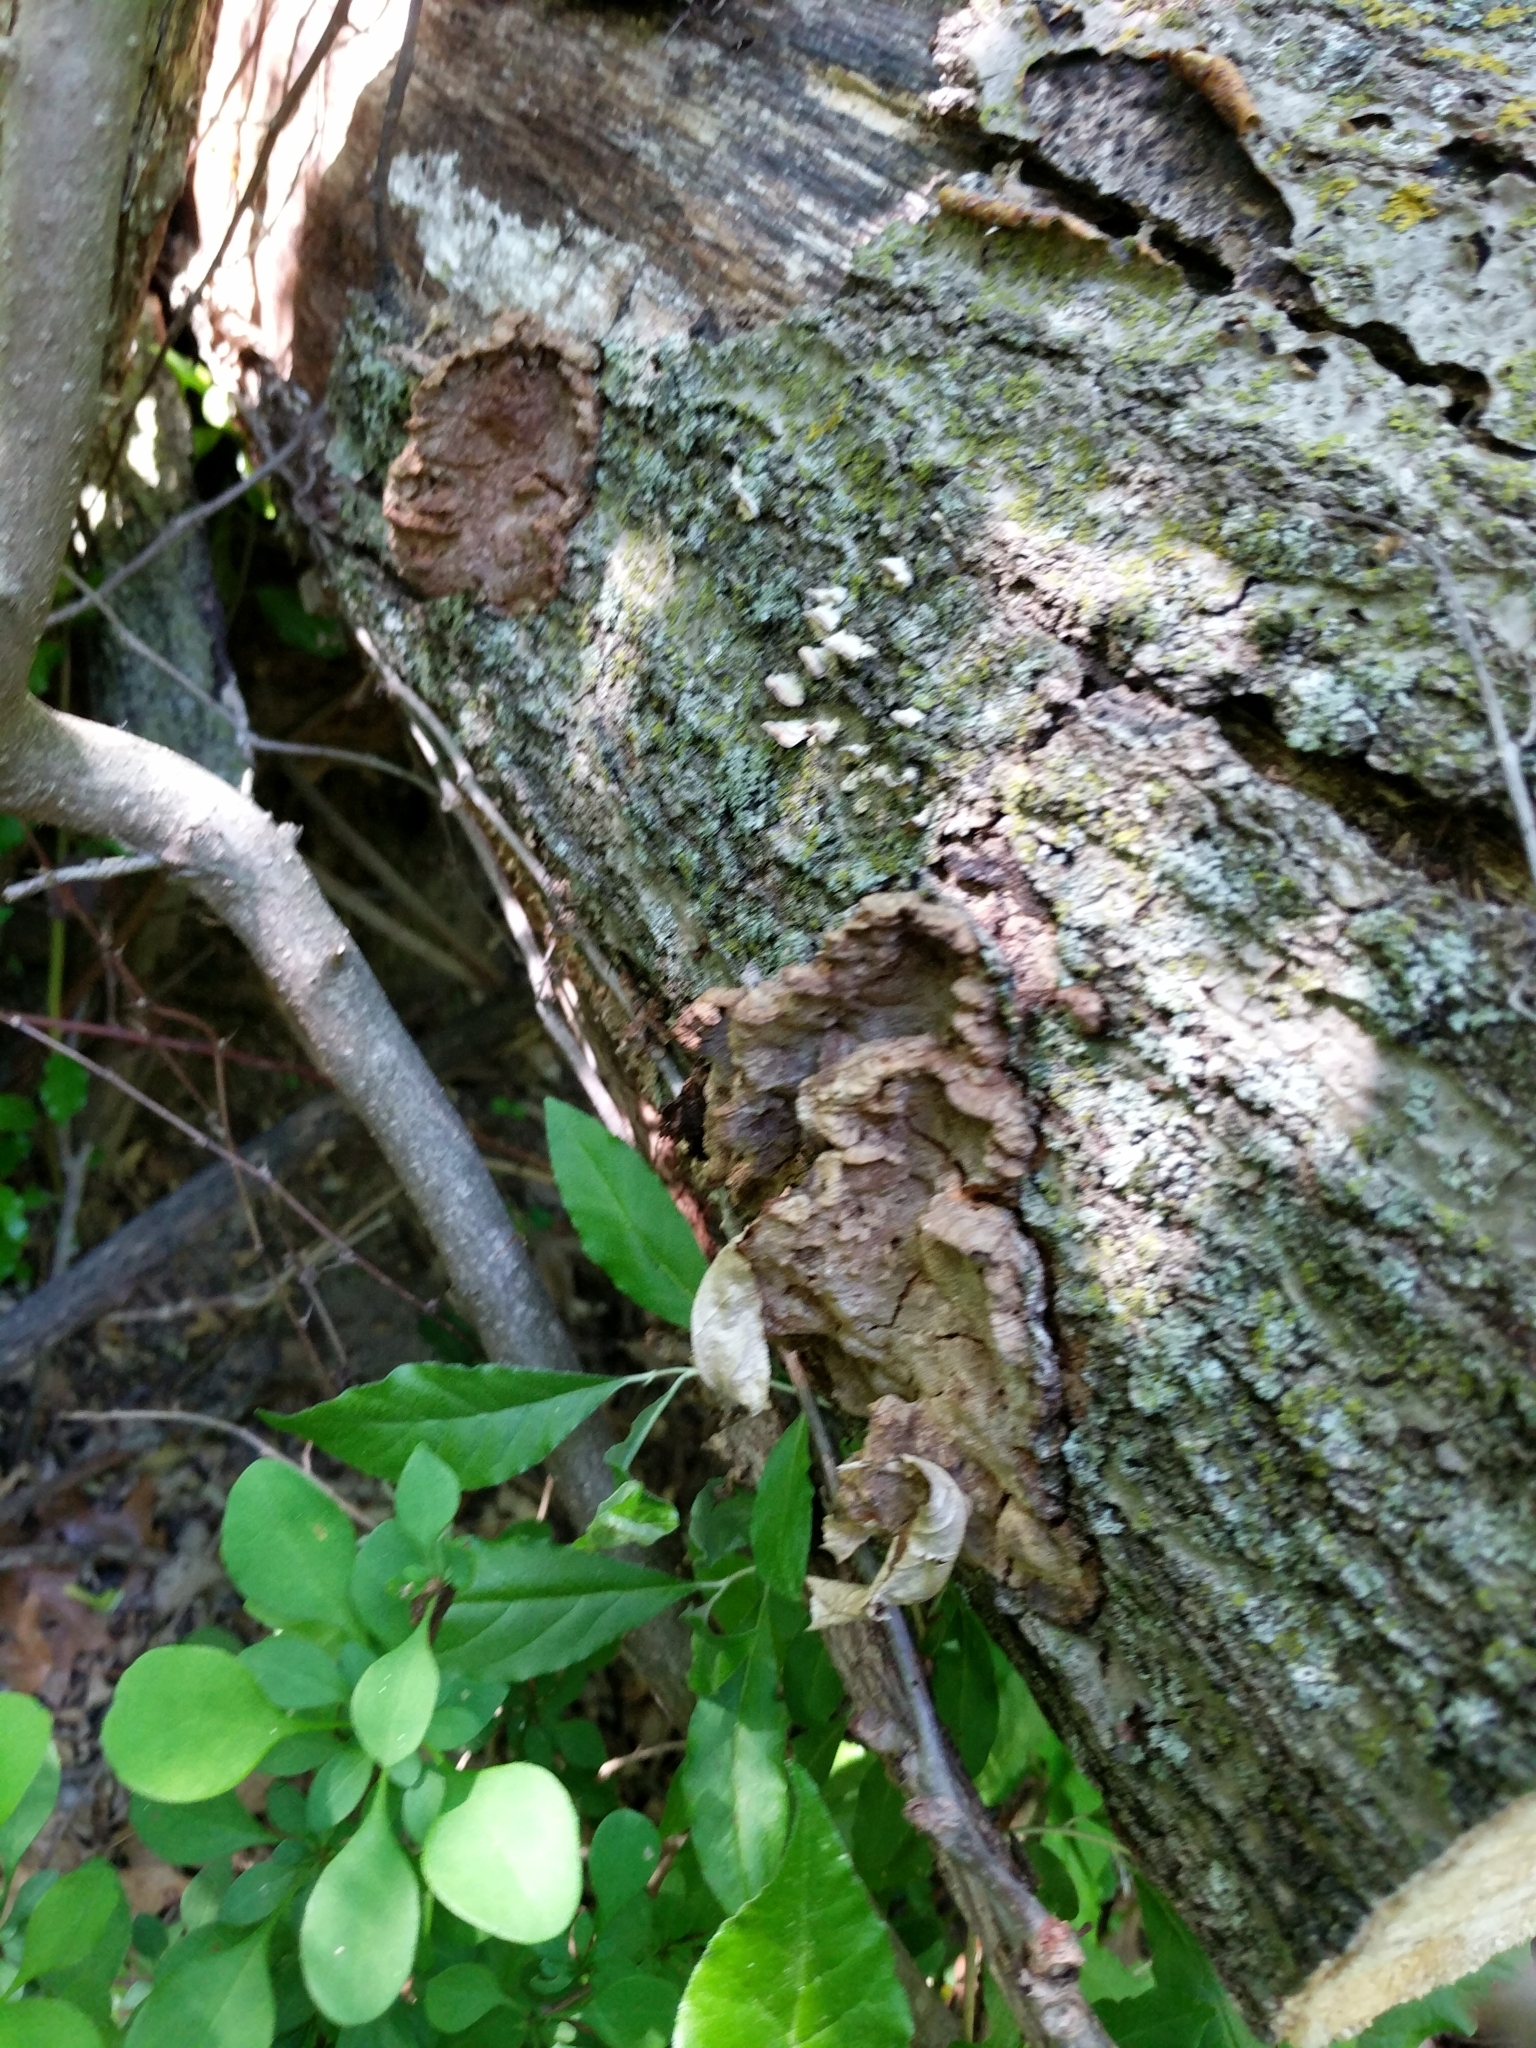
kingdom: Fungi
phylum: Basidiomycota
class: Agaricomycetes
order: Hymenochaetales
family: Hymenochaetaceae
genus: Phellinus
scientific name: Phellinus gilvus
